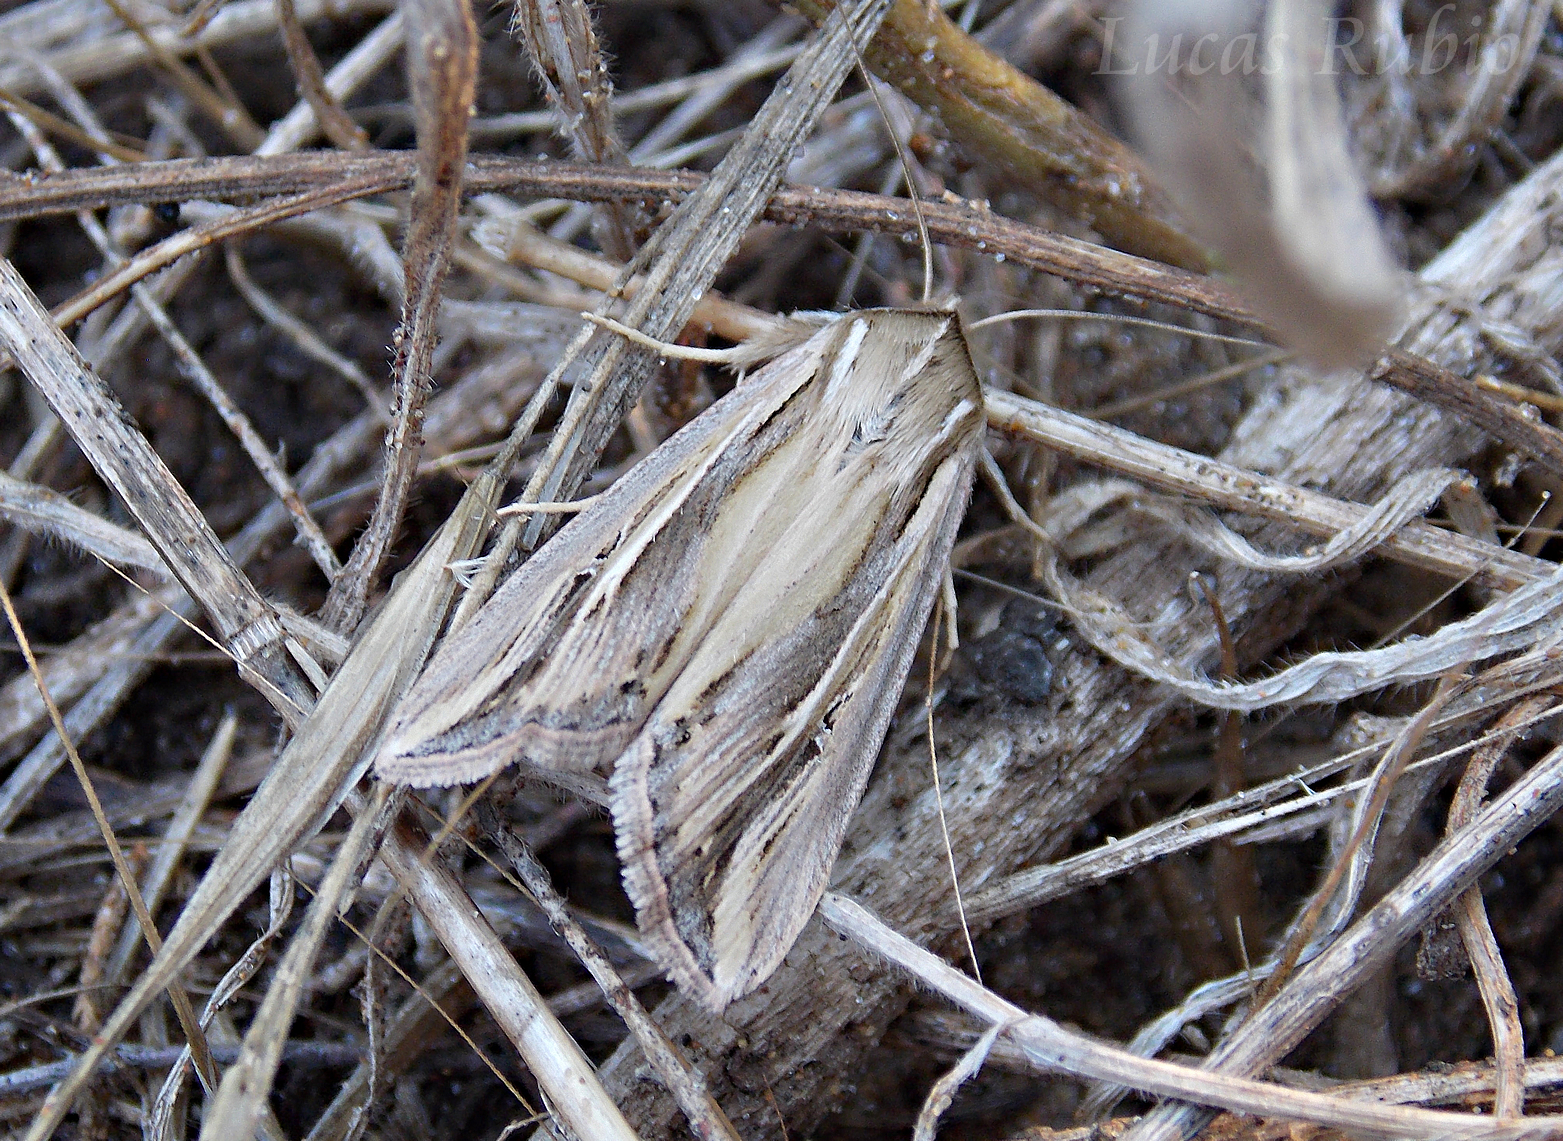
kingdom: Animalia
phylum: Arthropoda
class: Insecta
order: Lepidoptera
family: Noctuidae
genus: Dargida
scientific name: Dargida albilinea
